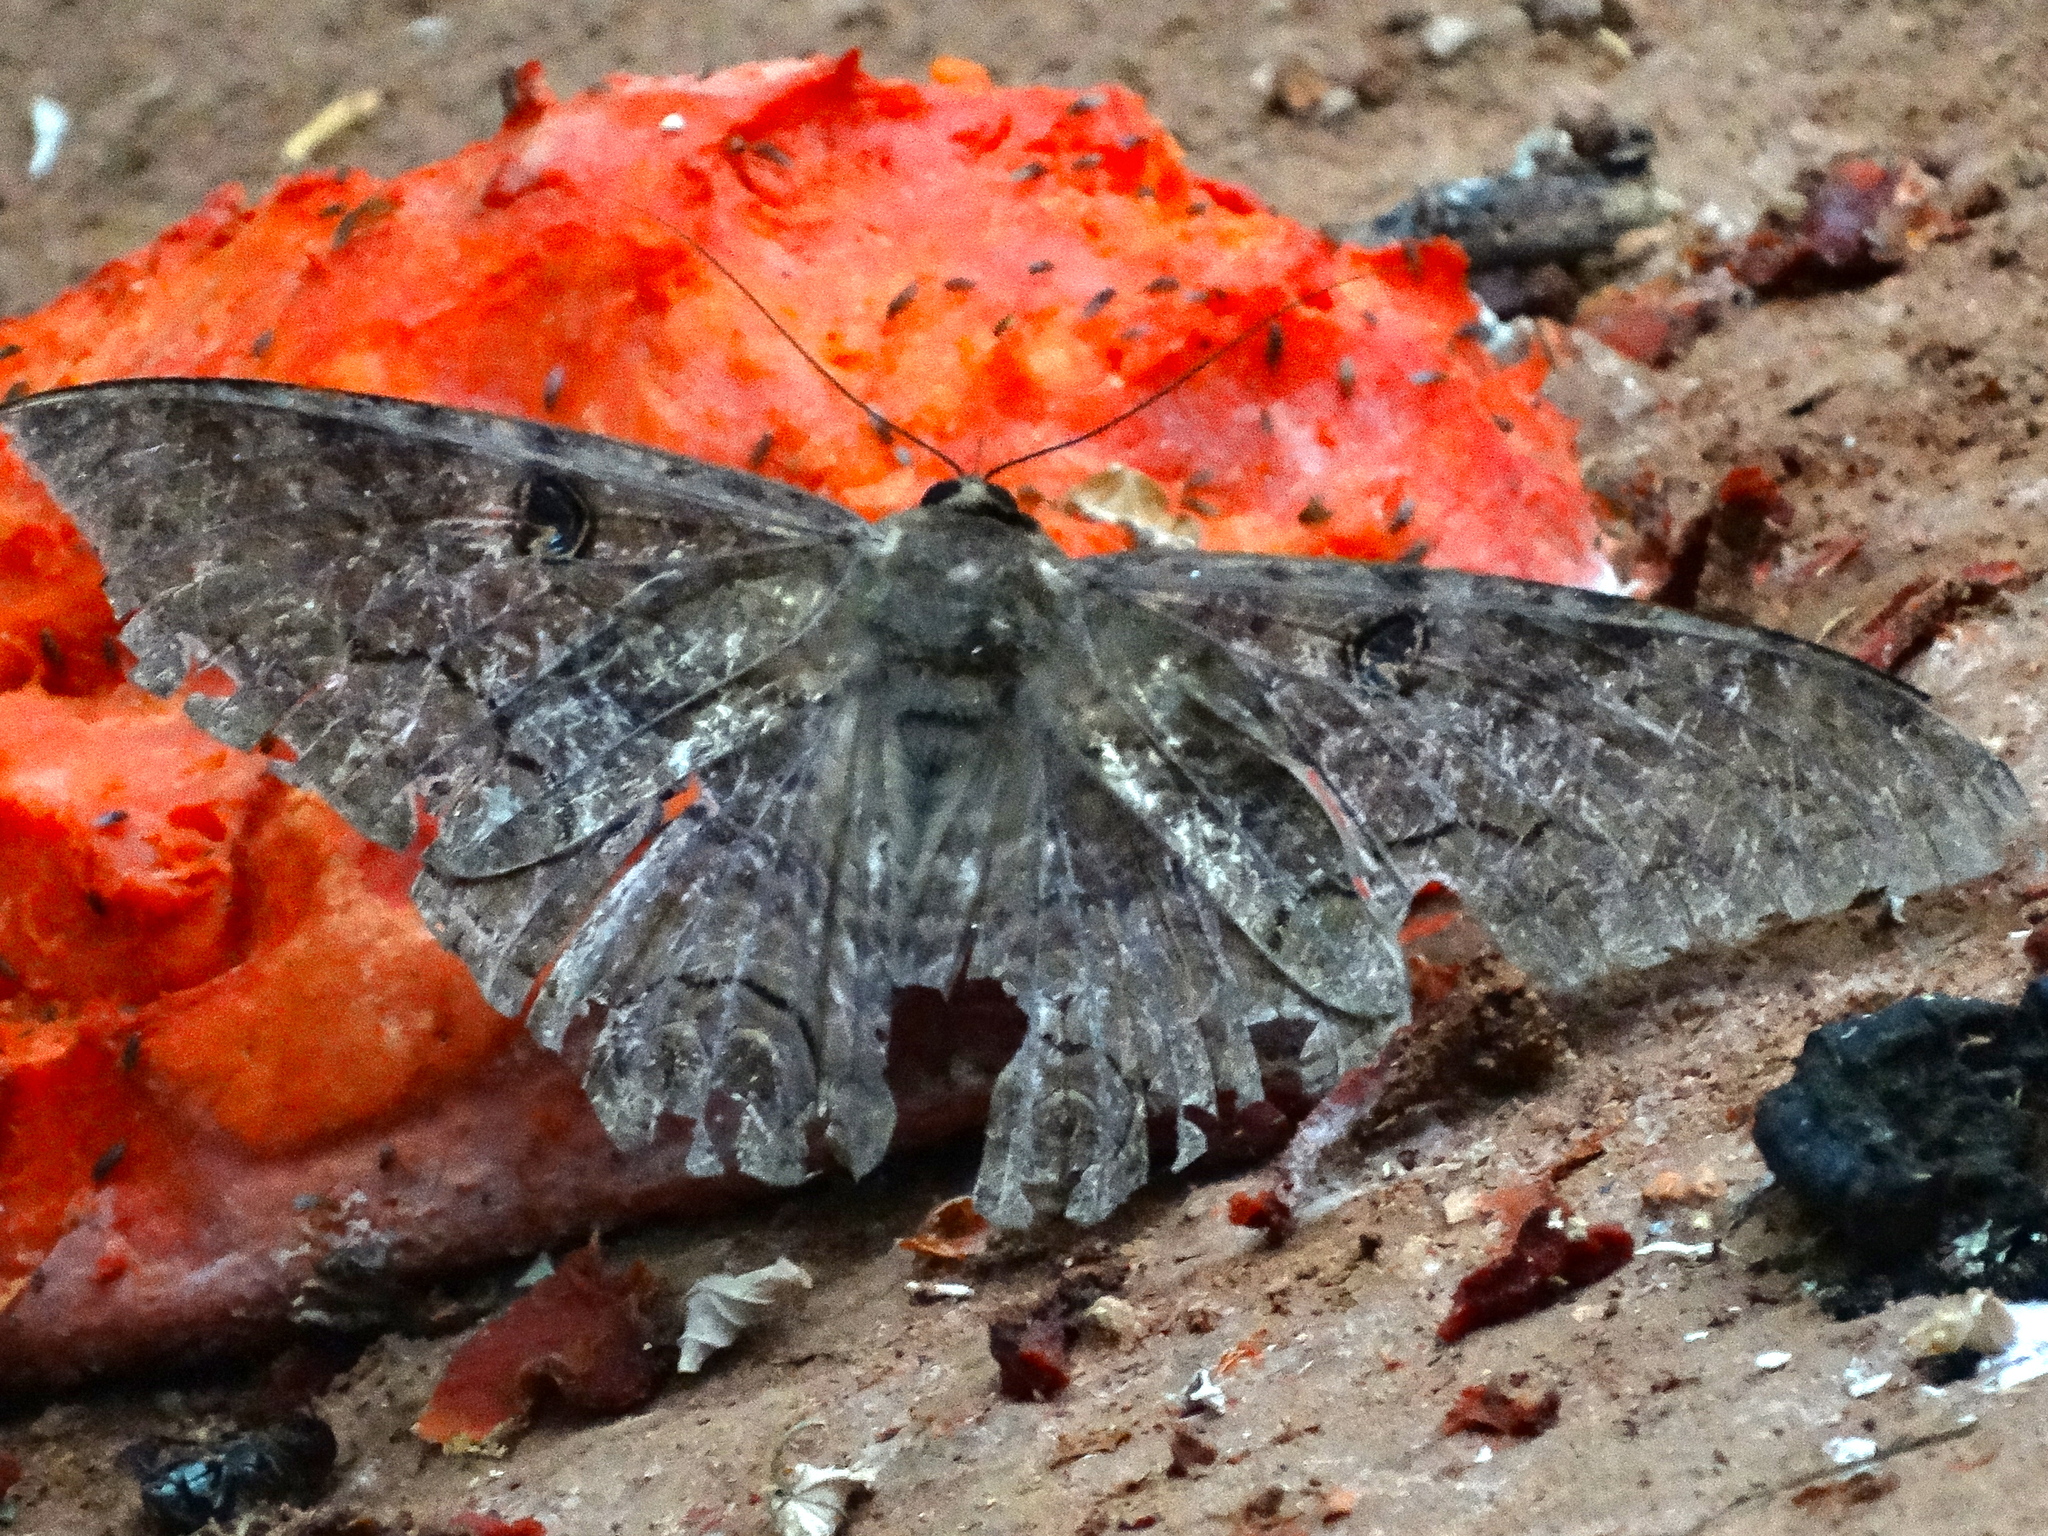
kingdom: Animalia
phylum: Arthropoda
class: Insecta
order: Lepidoptera
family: Erebidae
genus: Ascalapha
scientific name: Ascalapha odorata
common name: Black witch
